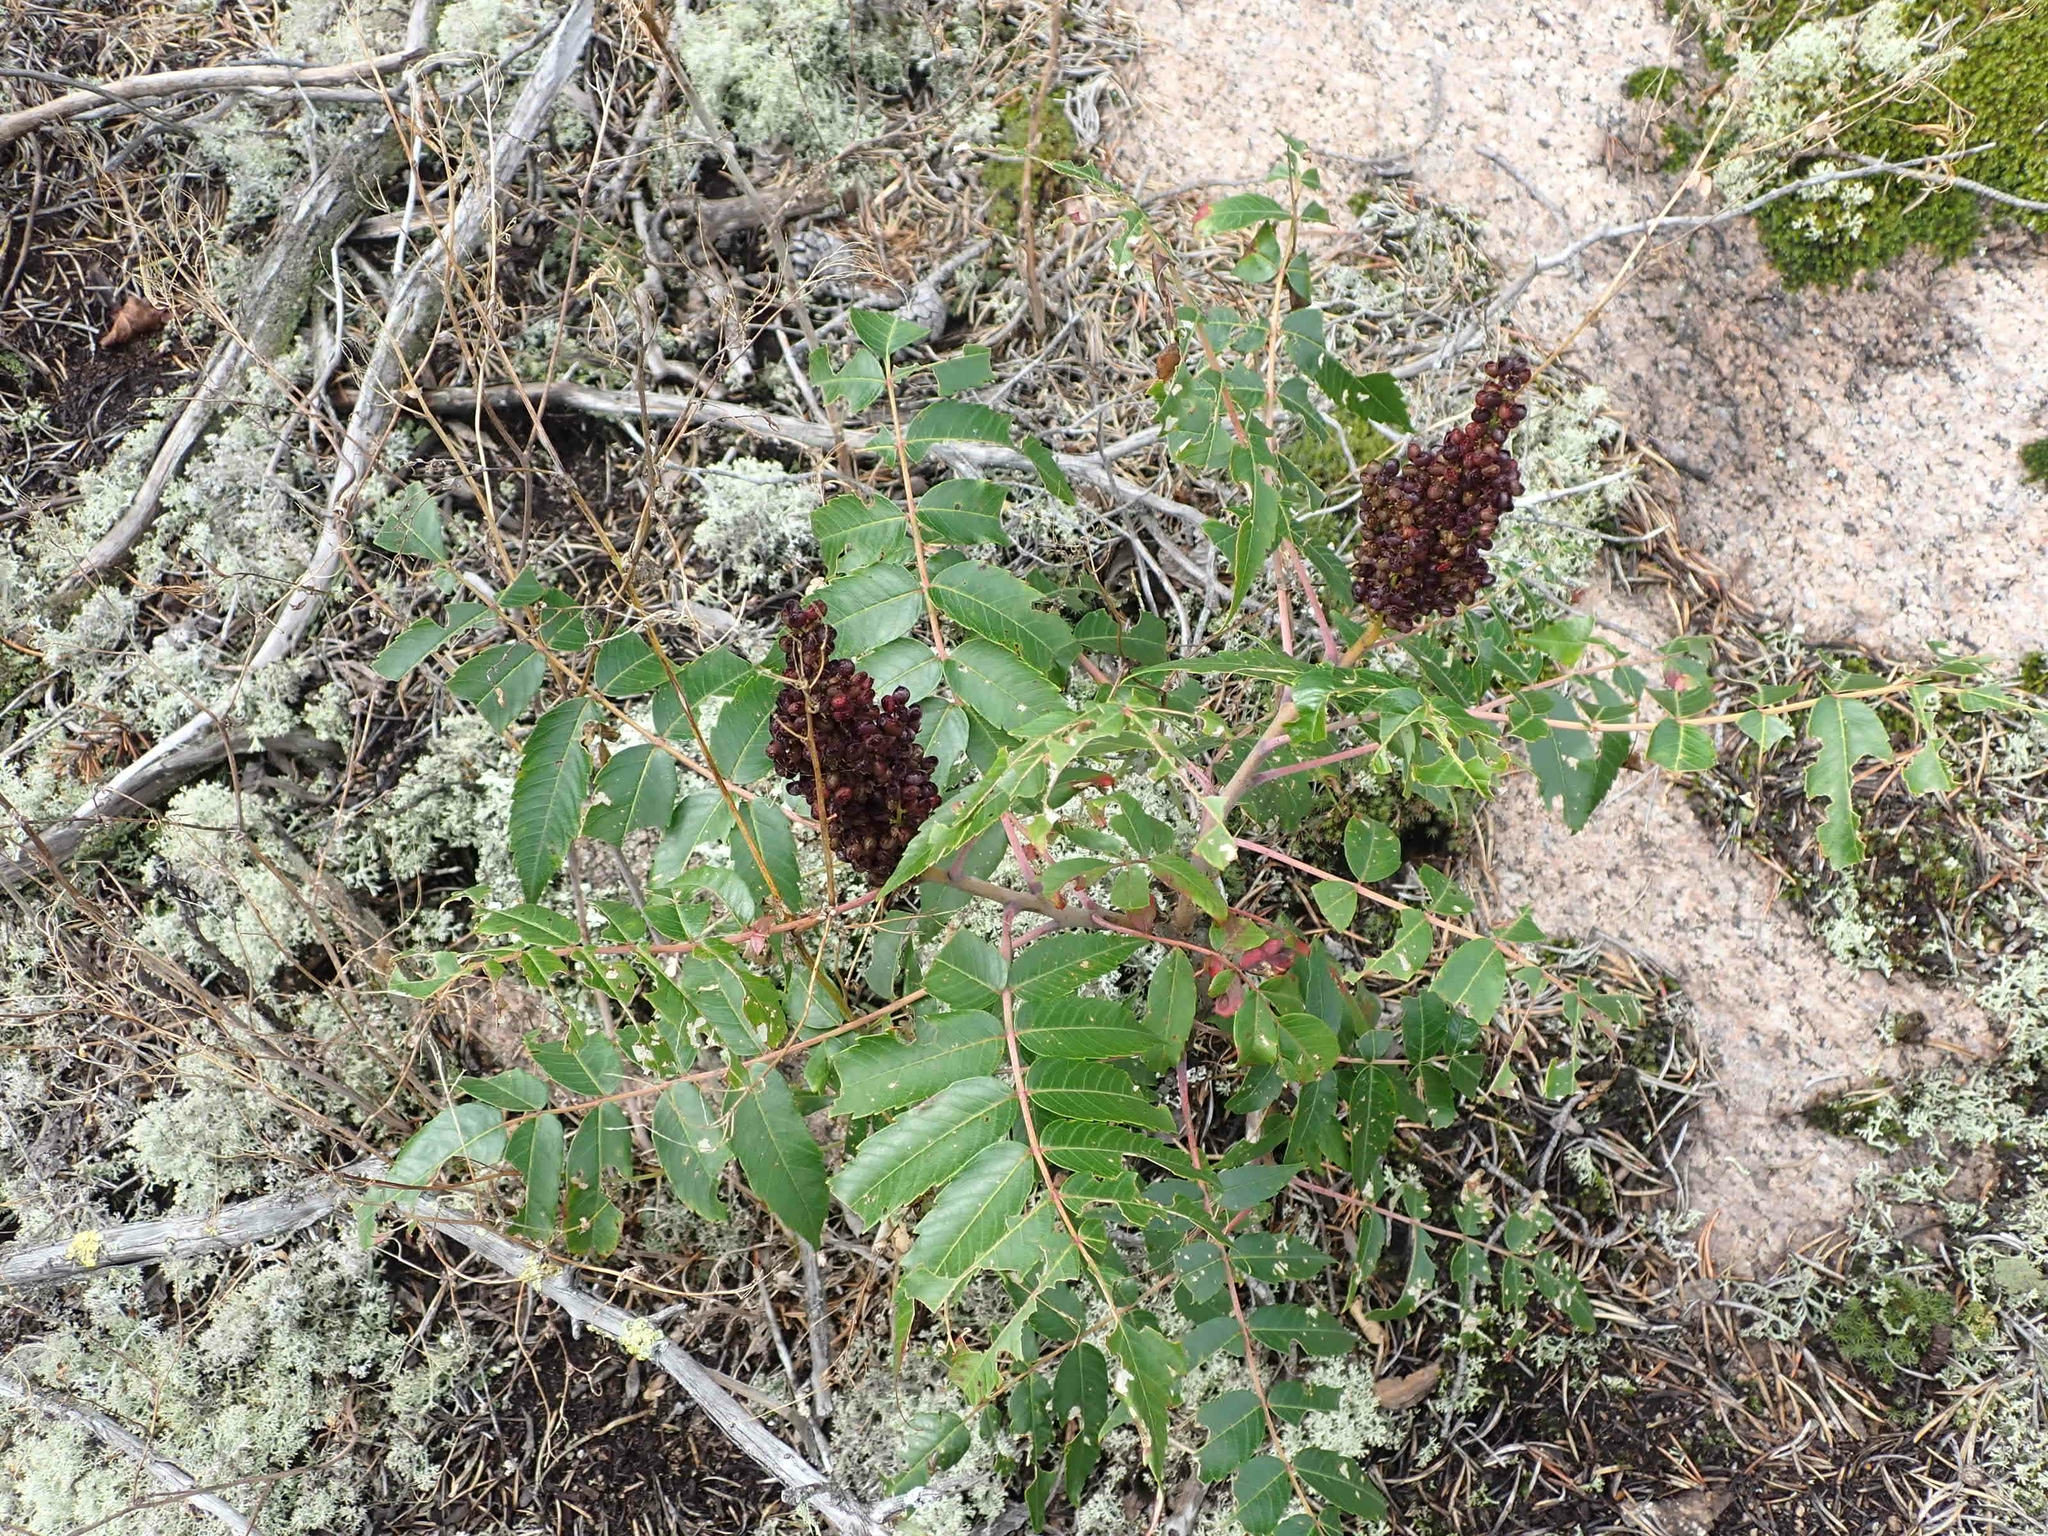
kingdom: Plantae
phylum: Tracheophyta
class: Magnoliopsida
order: Sapindales
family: Anacardiaceae
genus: Rhus
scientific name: Rhus glabra
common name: Scarlet sumac
